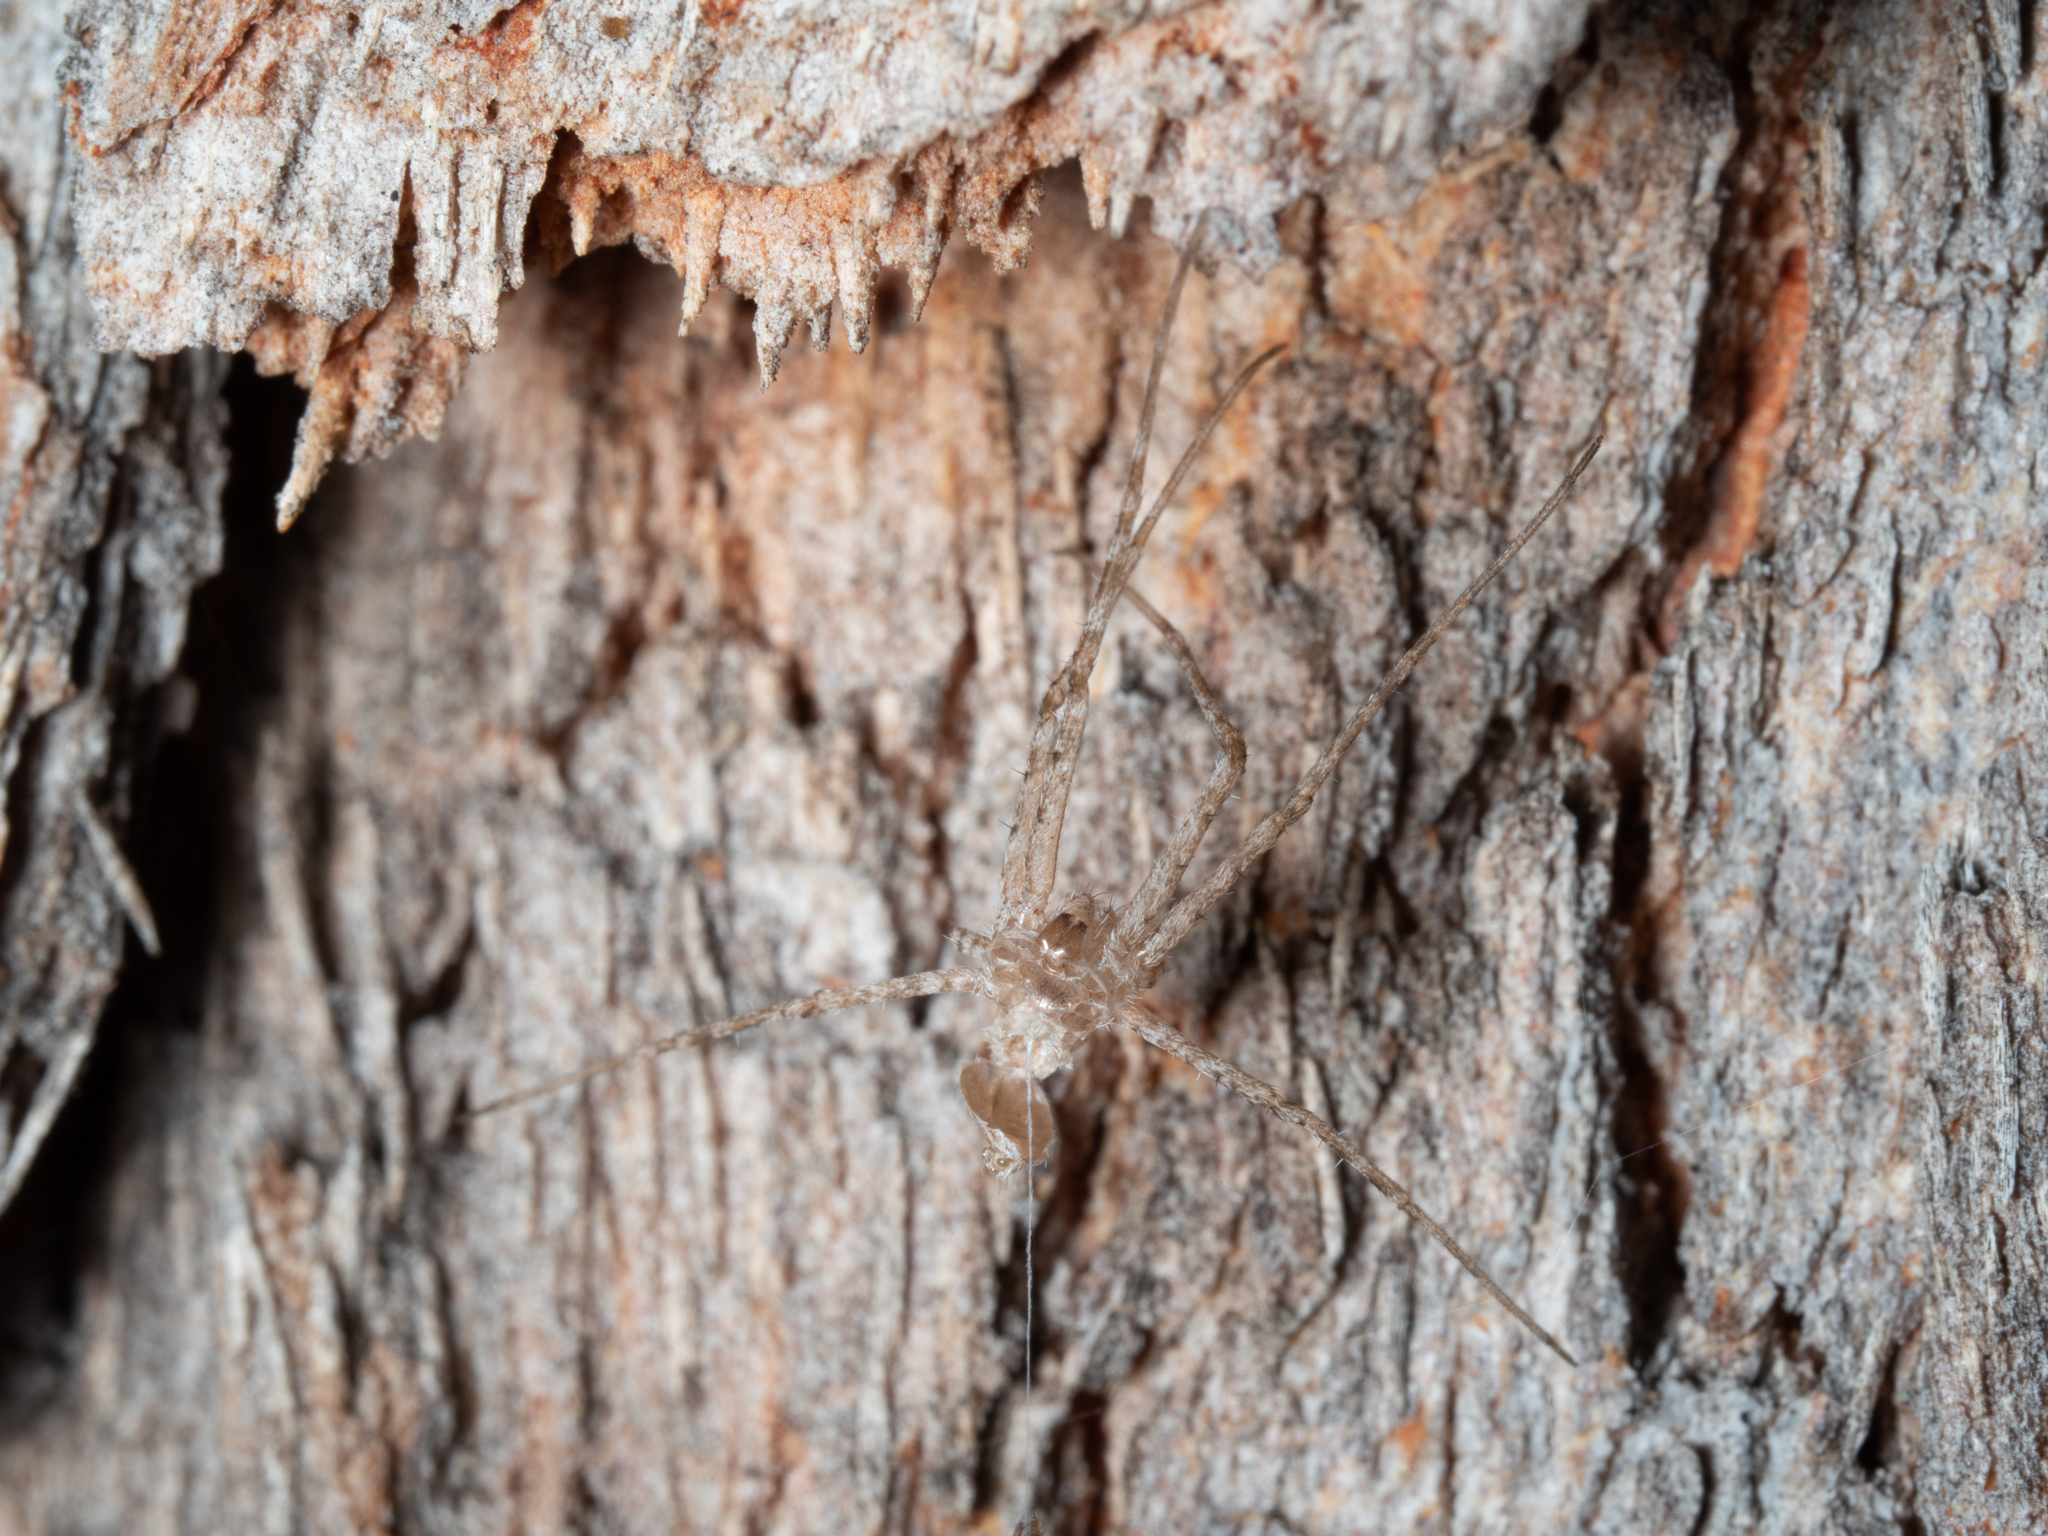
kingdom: Animalia
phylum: Arthropoda
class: Arachnida
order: Araneae
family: Hersiliidae
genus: Tamopsis
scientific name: Tamopsis fickerti
